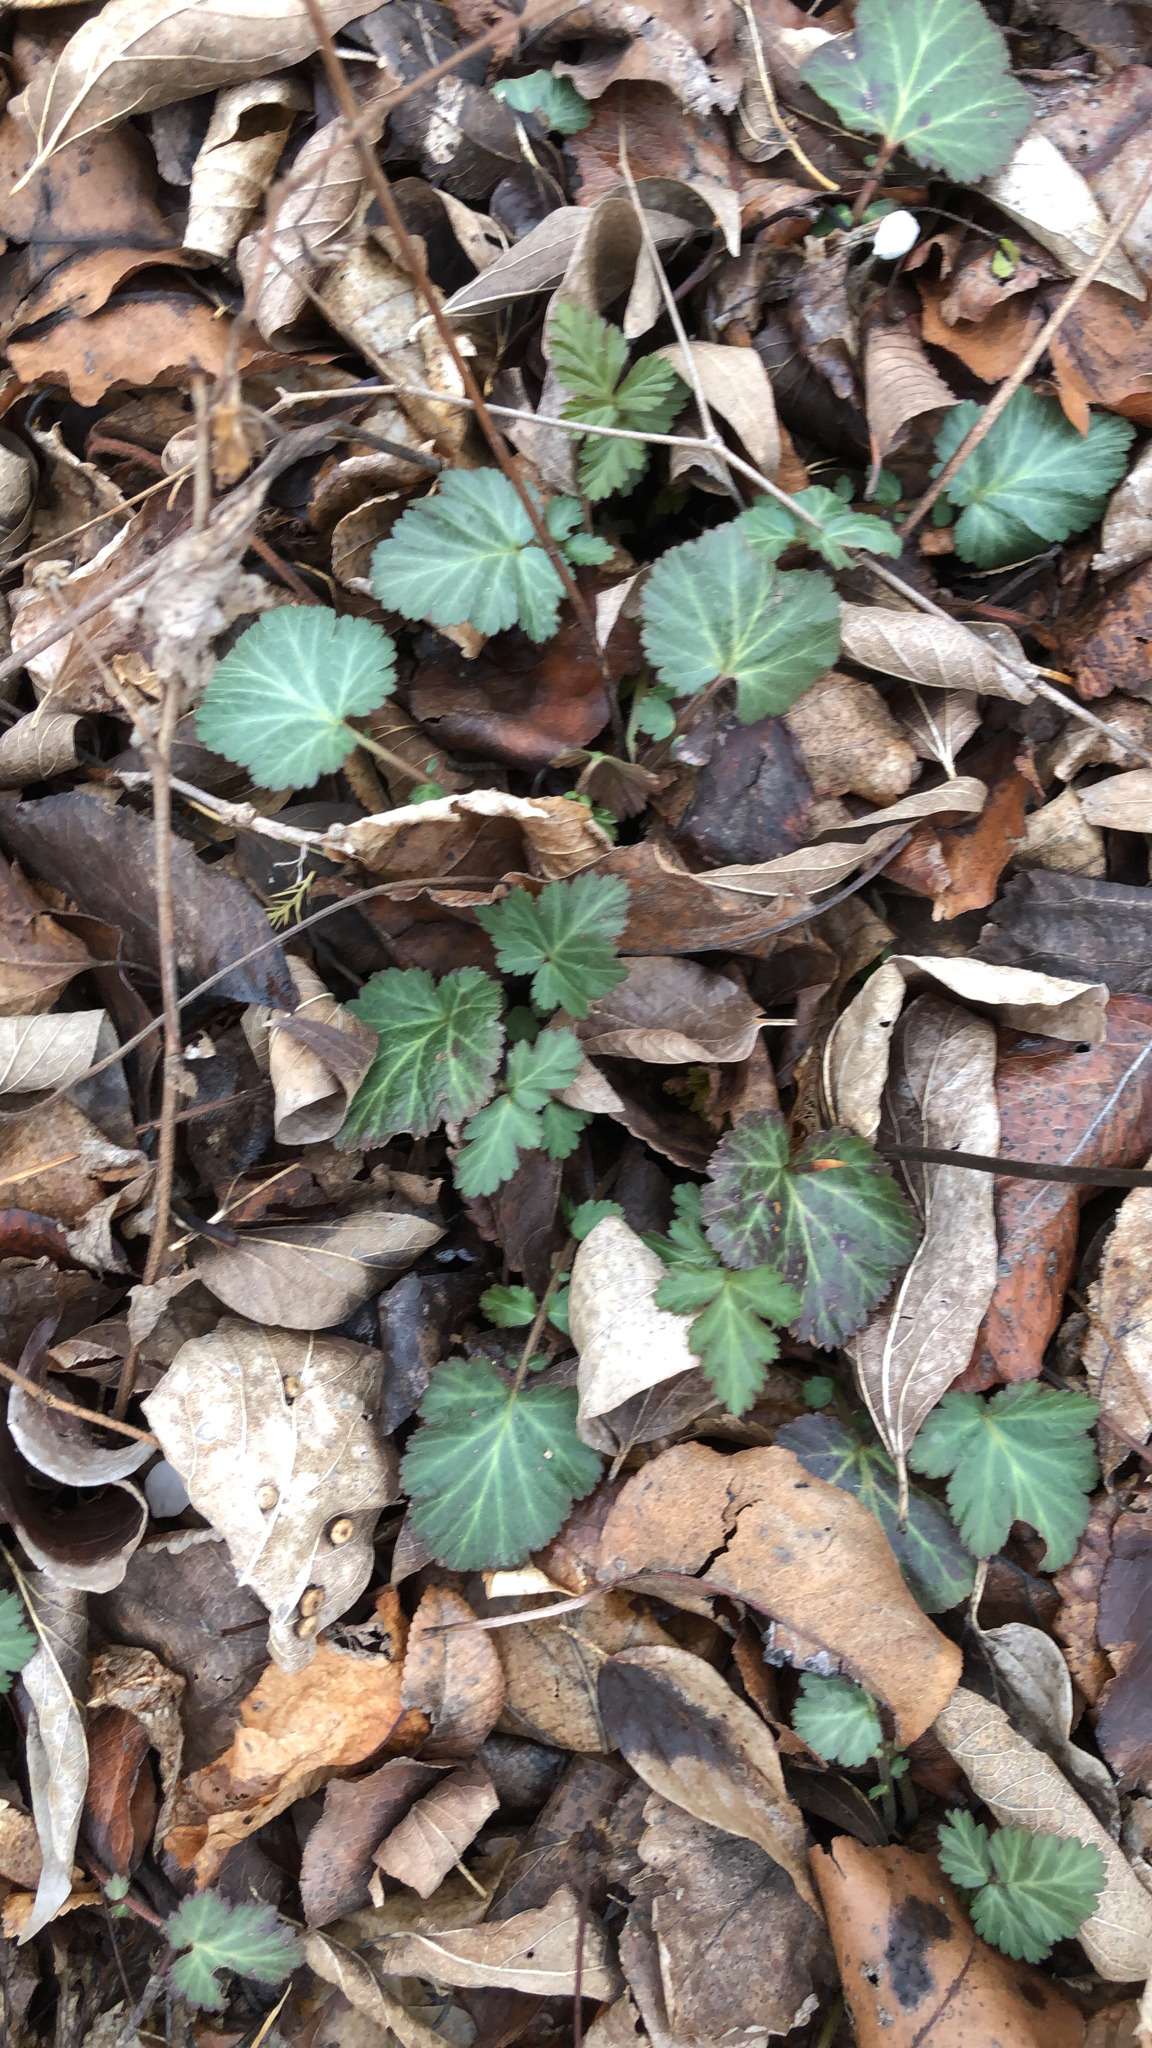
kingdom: Plantae
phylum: Tracheophyta
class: Magnoliopsida
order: Rosales
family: Rosaceae
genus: Geum
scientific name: Geum canadense
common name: White avens
